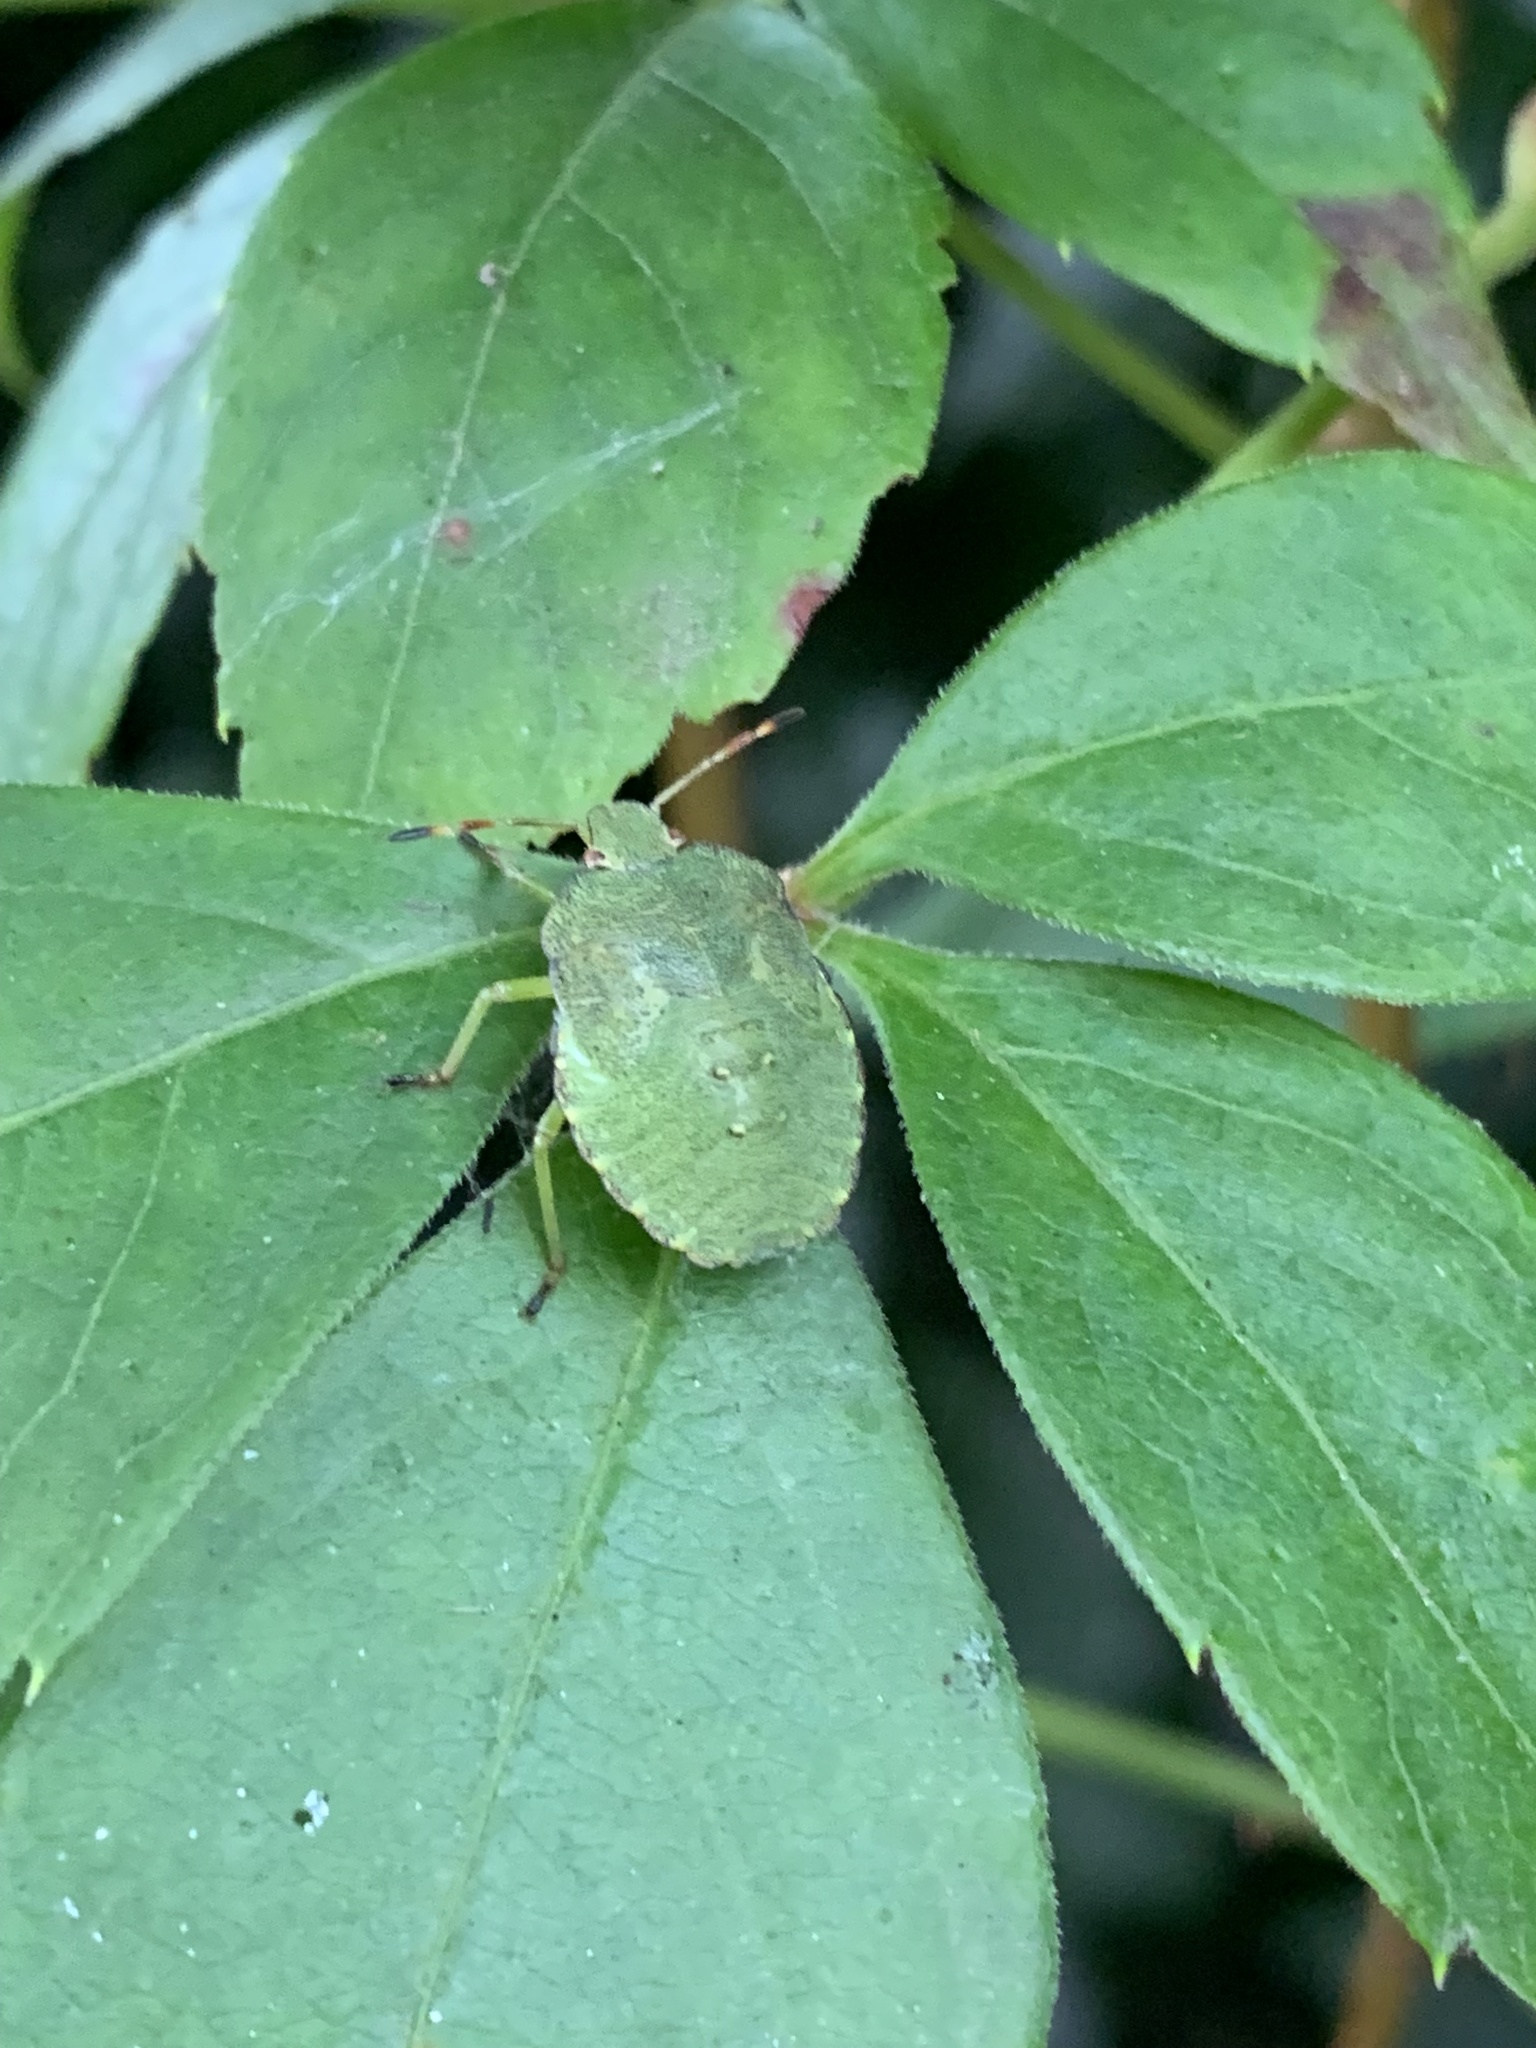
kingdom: Animalia
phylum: Arthropoda
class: Insecta
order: Hemiptera
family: Pentatomidae
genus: Palomena
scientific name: Palomena prasina
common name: Green shieldbug
